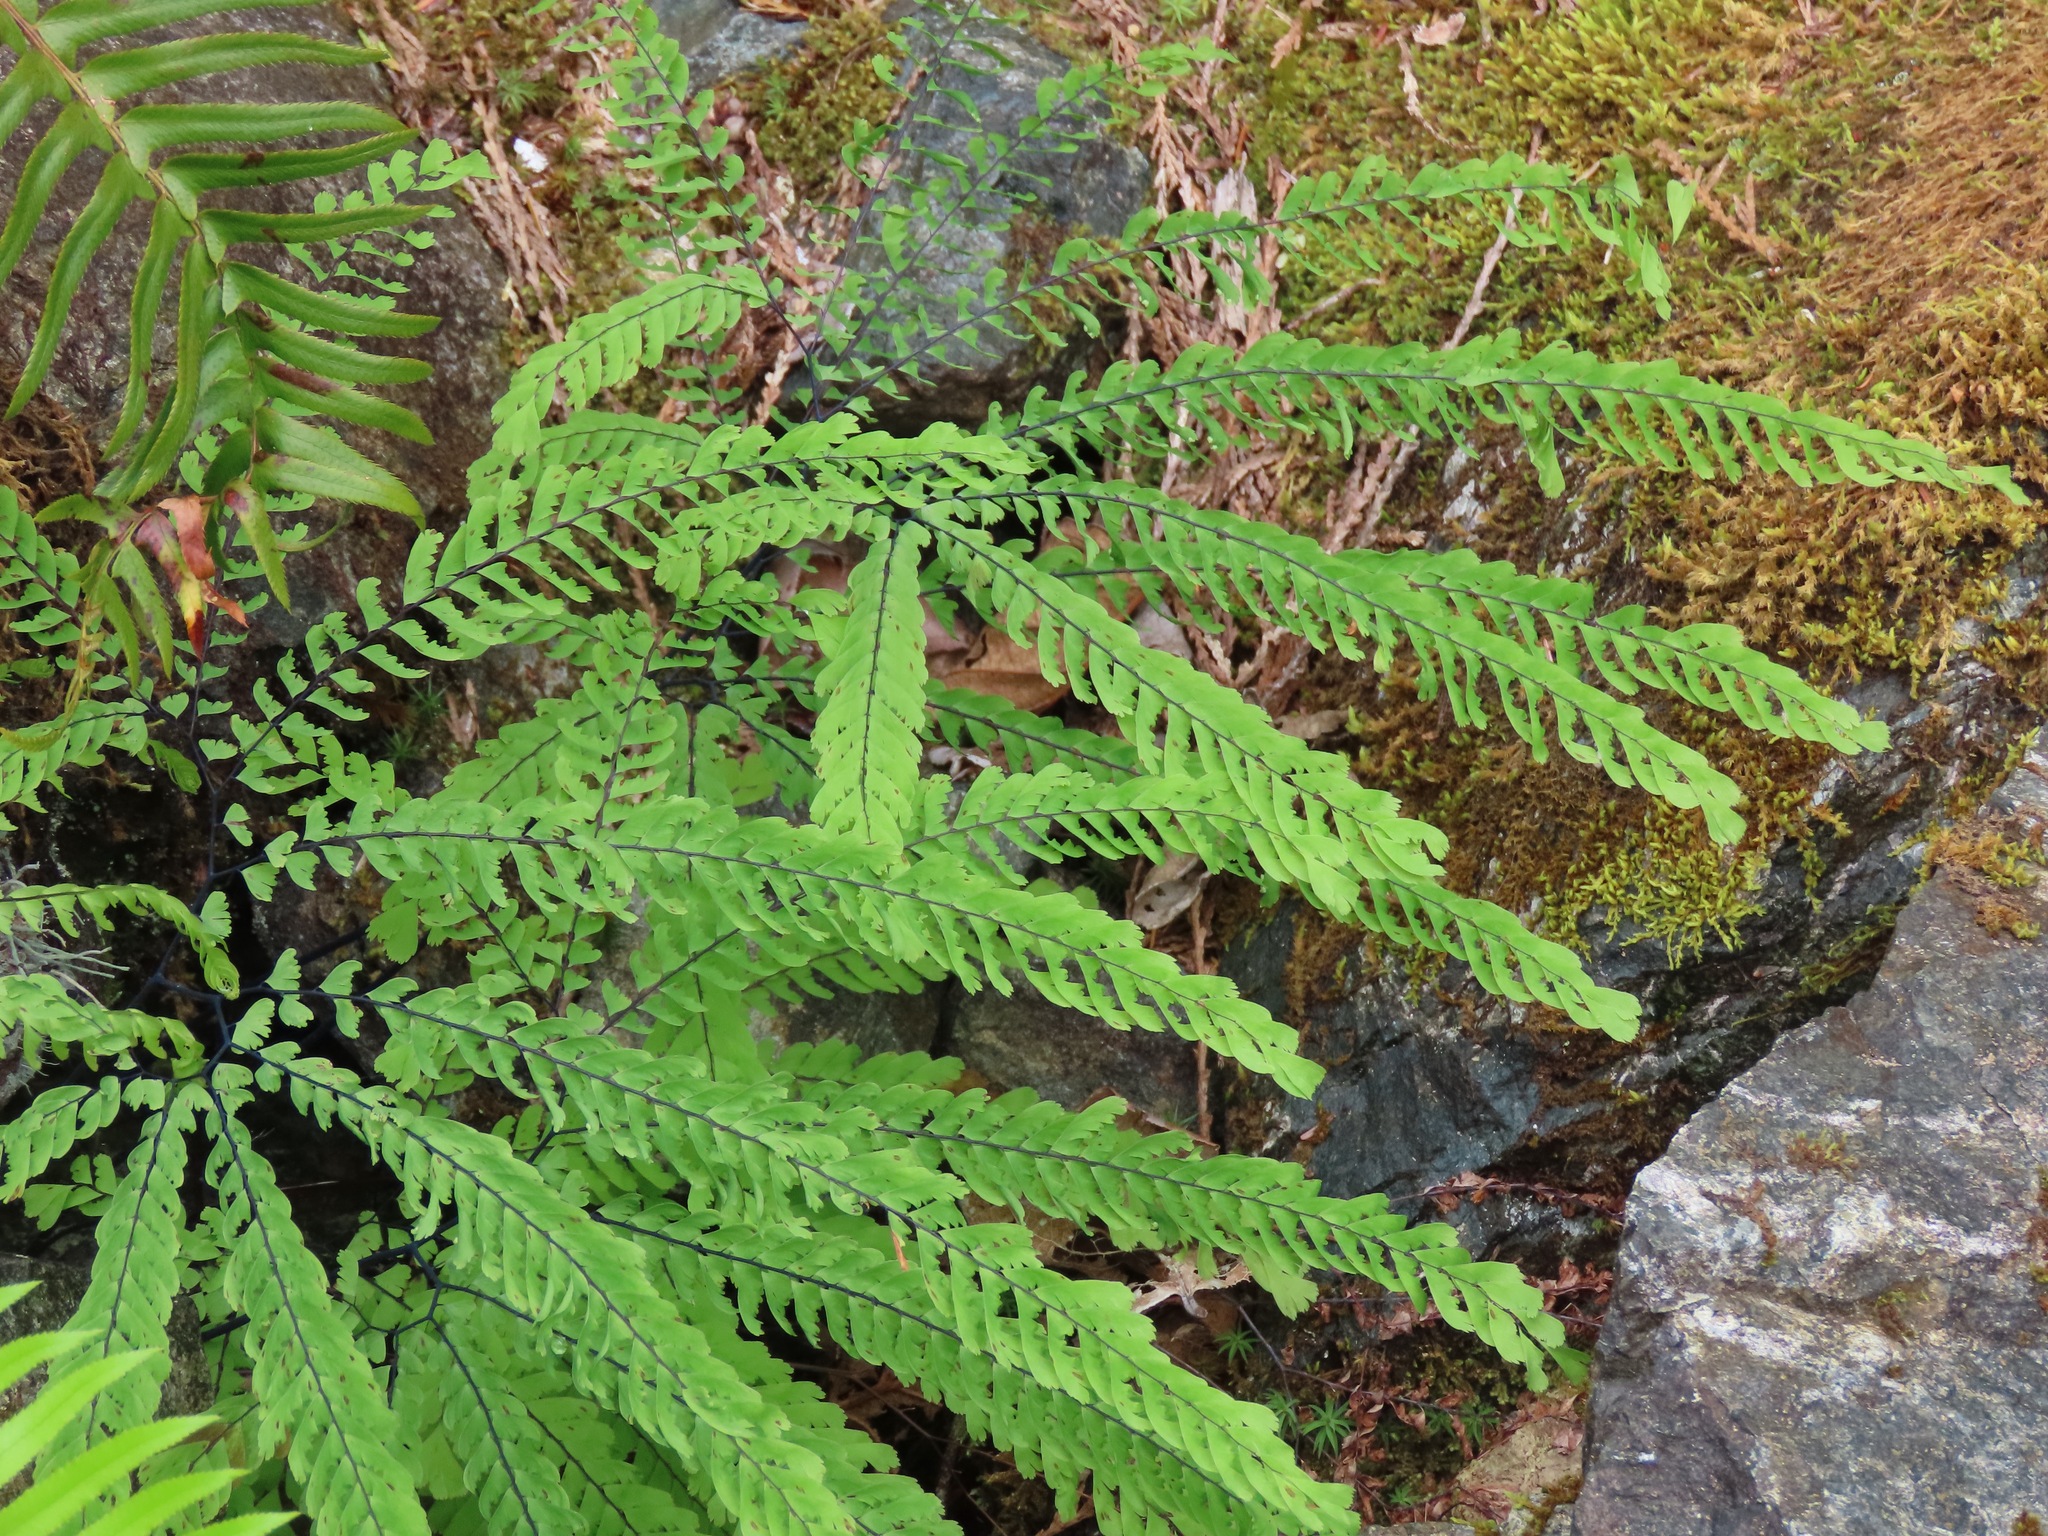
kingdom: Plantae
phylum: Tracheophyta
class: Polypodiopsida
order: Polypodiales
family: Pteridaceae
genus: Adiantum
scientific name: Adiantum aleuticum
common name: Aleutian maidenhair fern
